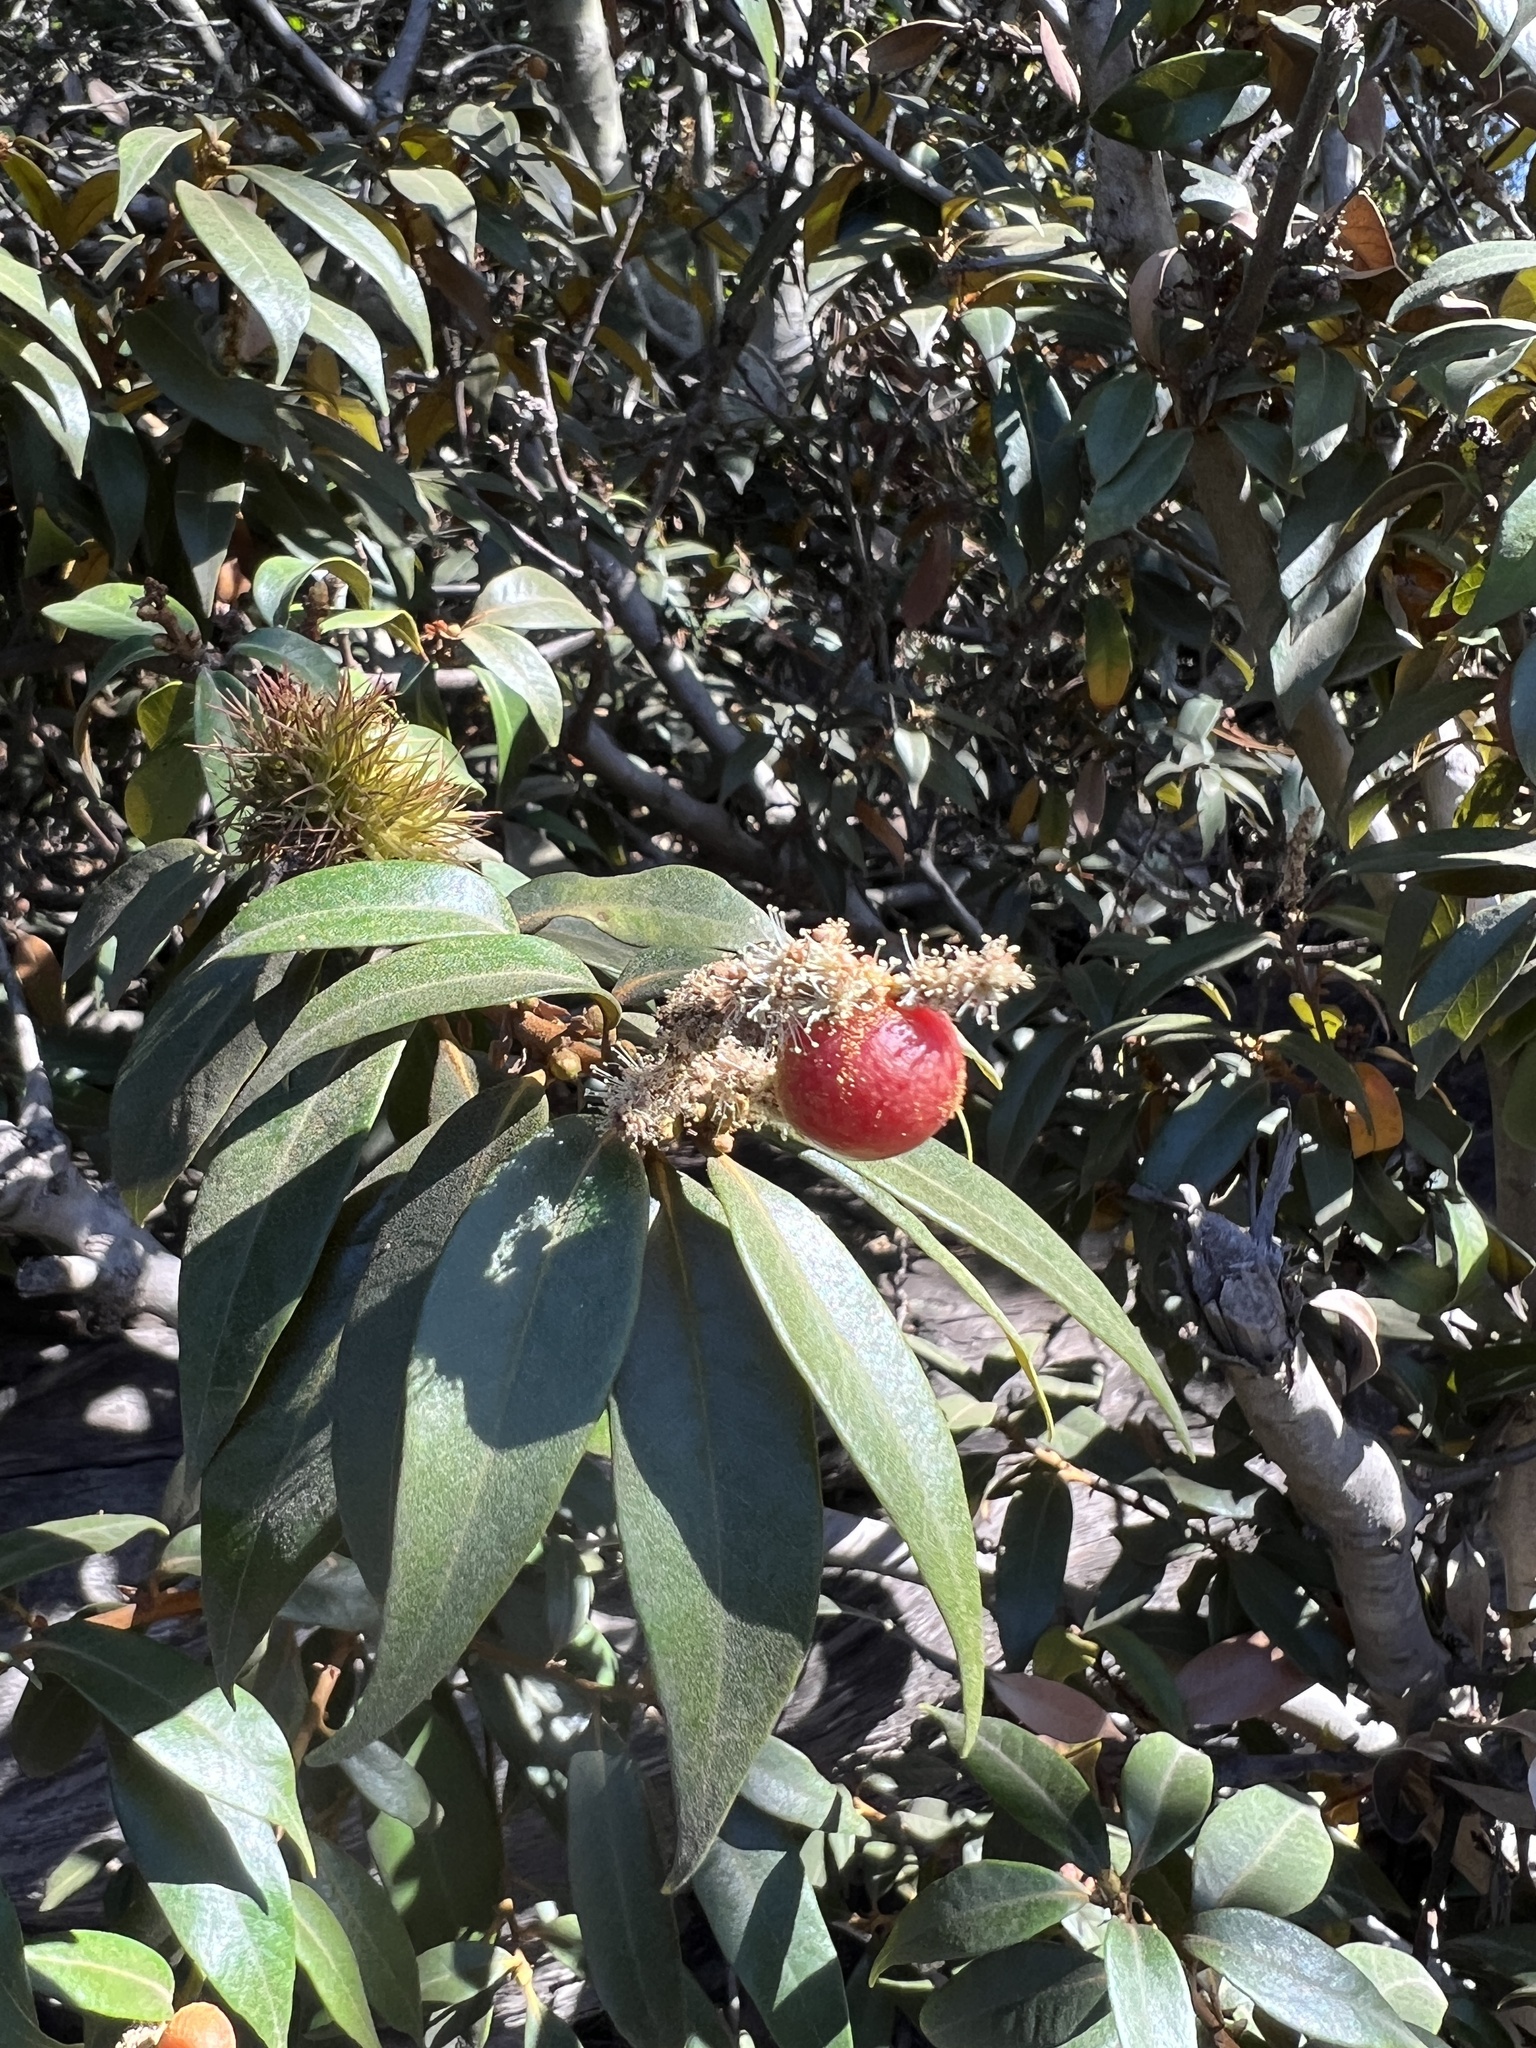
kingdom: Animalia
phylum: Arthropoda
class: Insecta
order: Hymenoptera
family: Cynipidae
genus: Synergus
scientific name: Synergus castanopsidis
